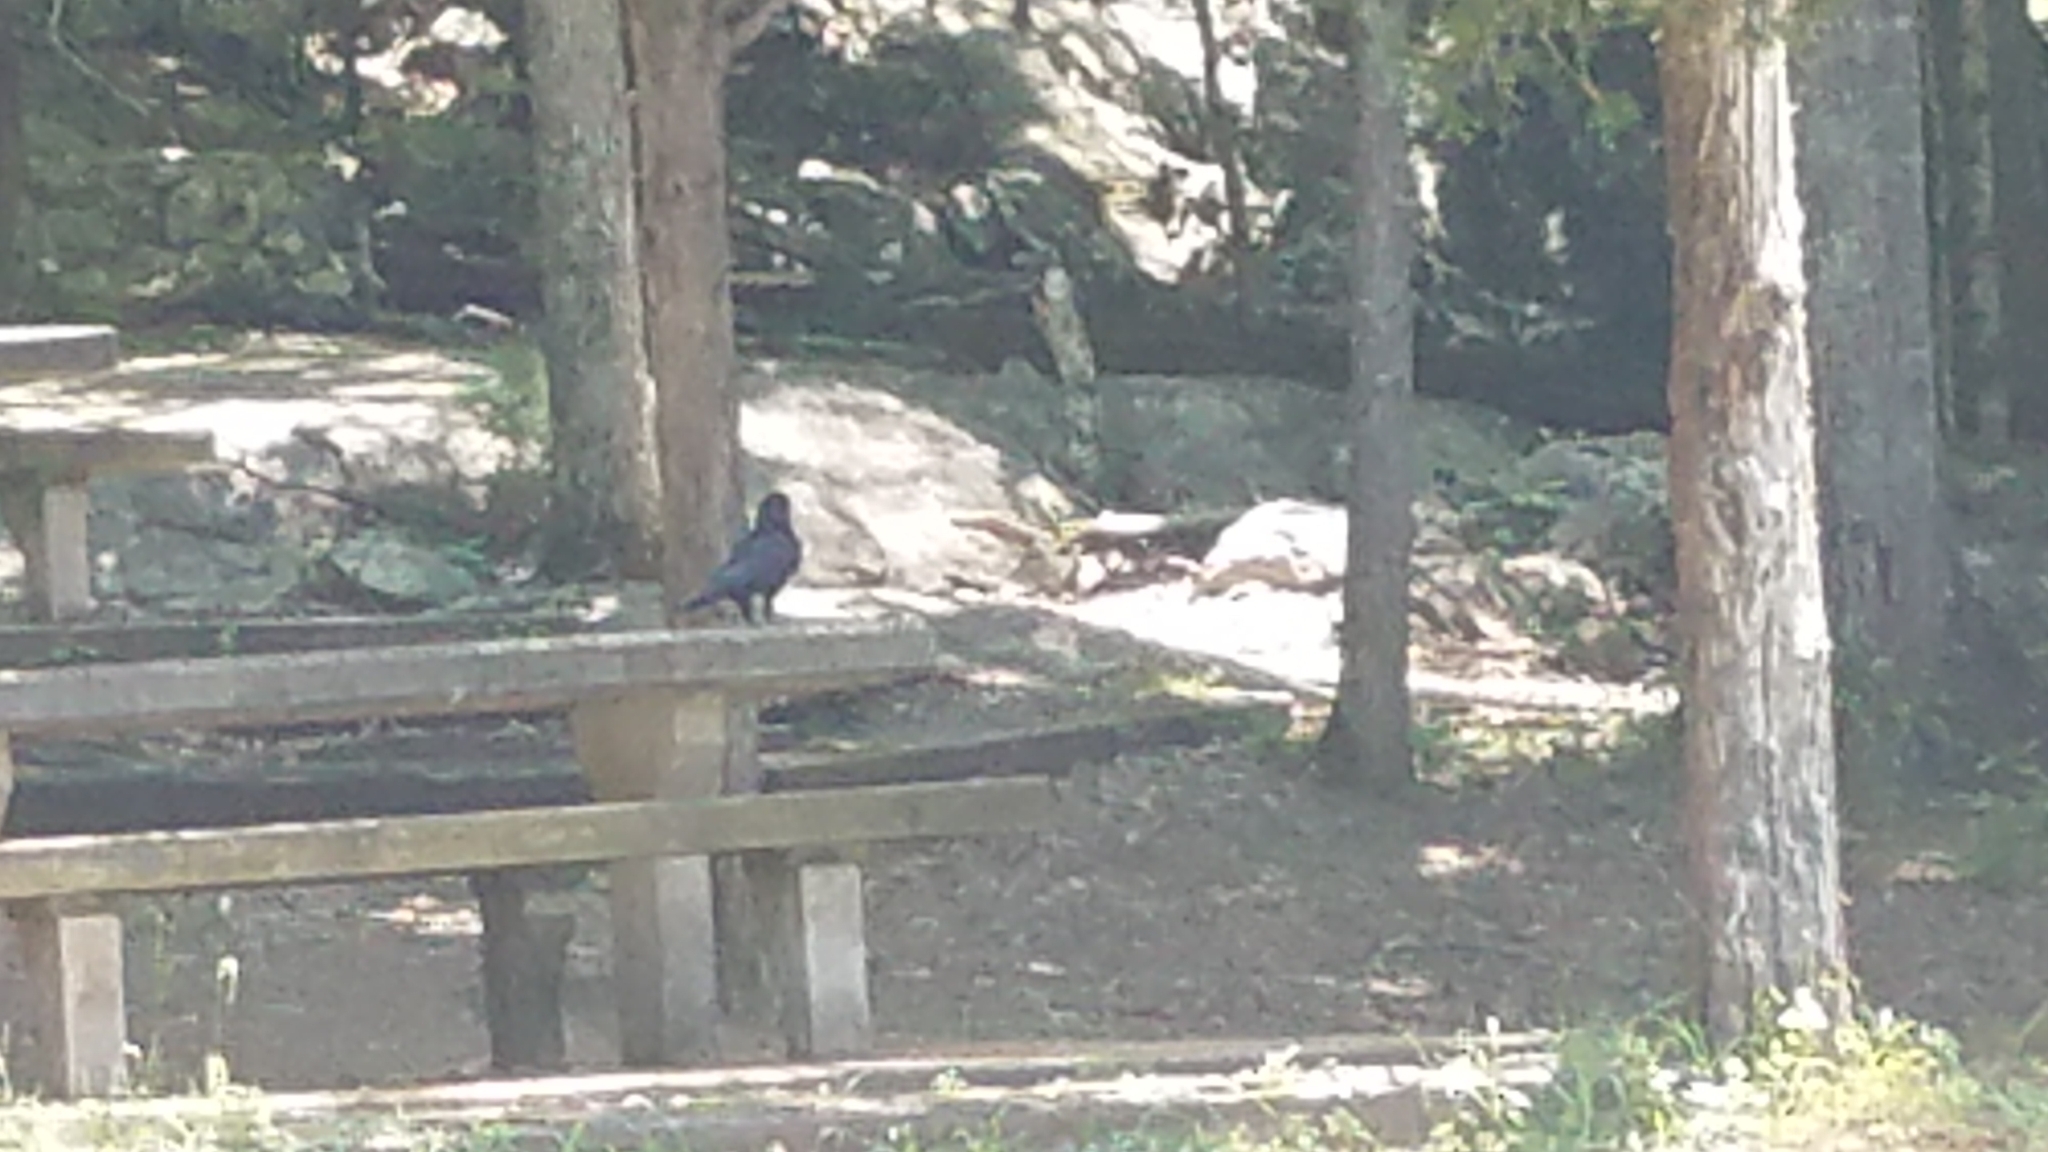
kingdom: Animalia
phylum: Chordata
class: Aves
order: Passeriformes
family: Corvidae
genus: Corvus
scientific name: Corvus brachyrhynchos
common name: American crow
